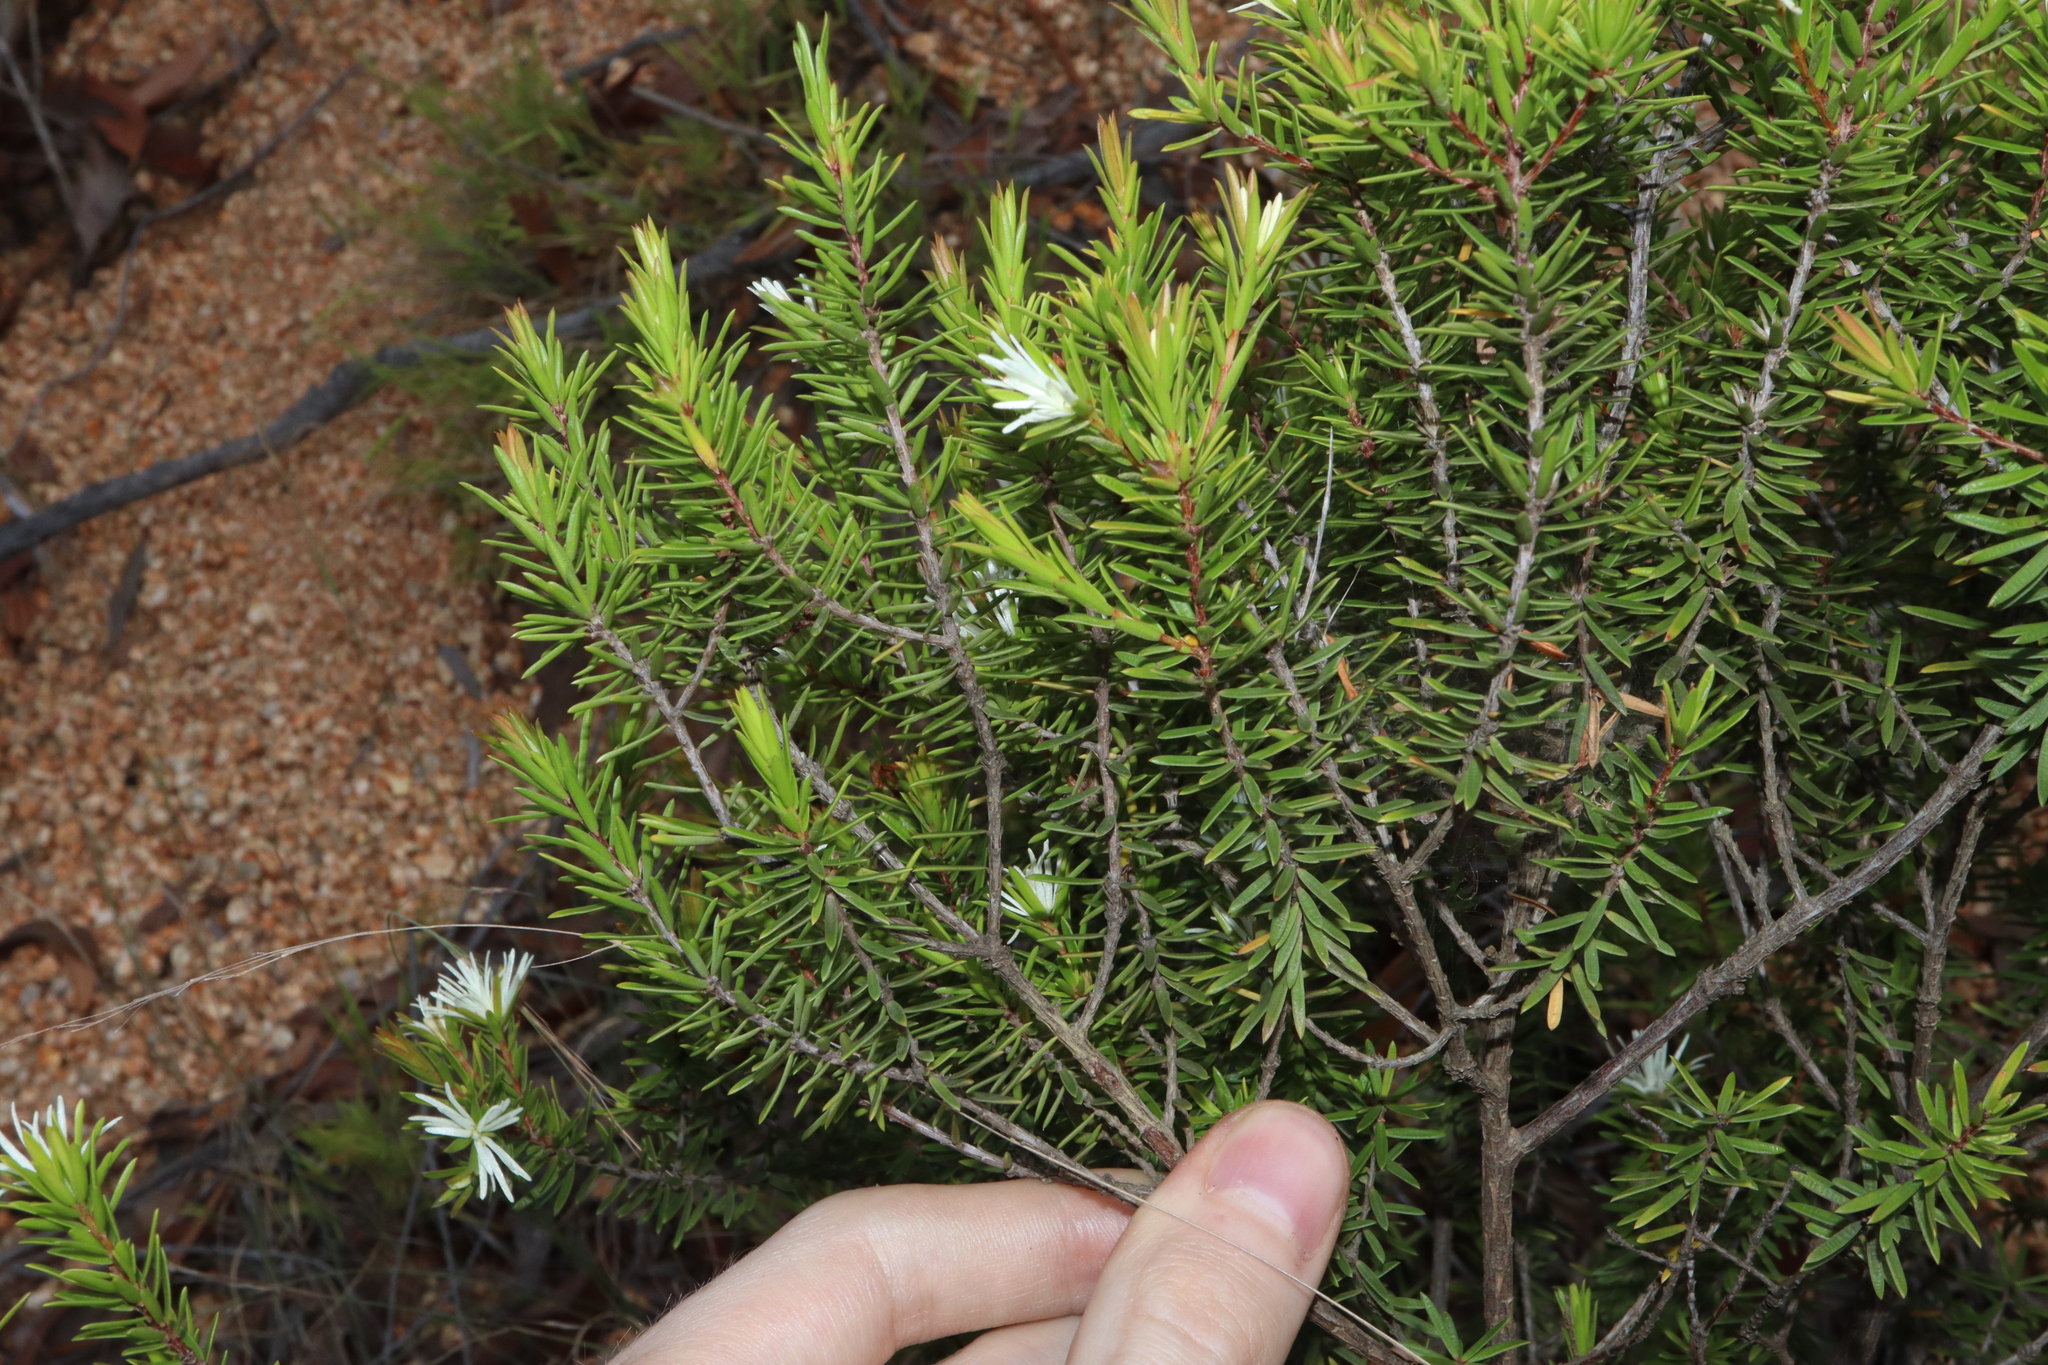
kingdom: Plantae
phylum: Tracheophyta
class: Magnoliopsida
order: Malpighiales
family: Picrodendraceae
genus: Pseudanthus
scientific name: Pseudanthus ligulatus
